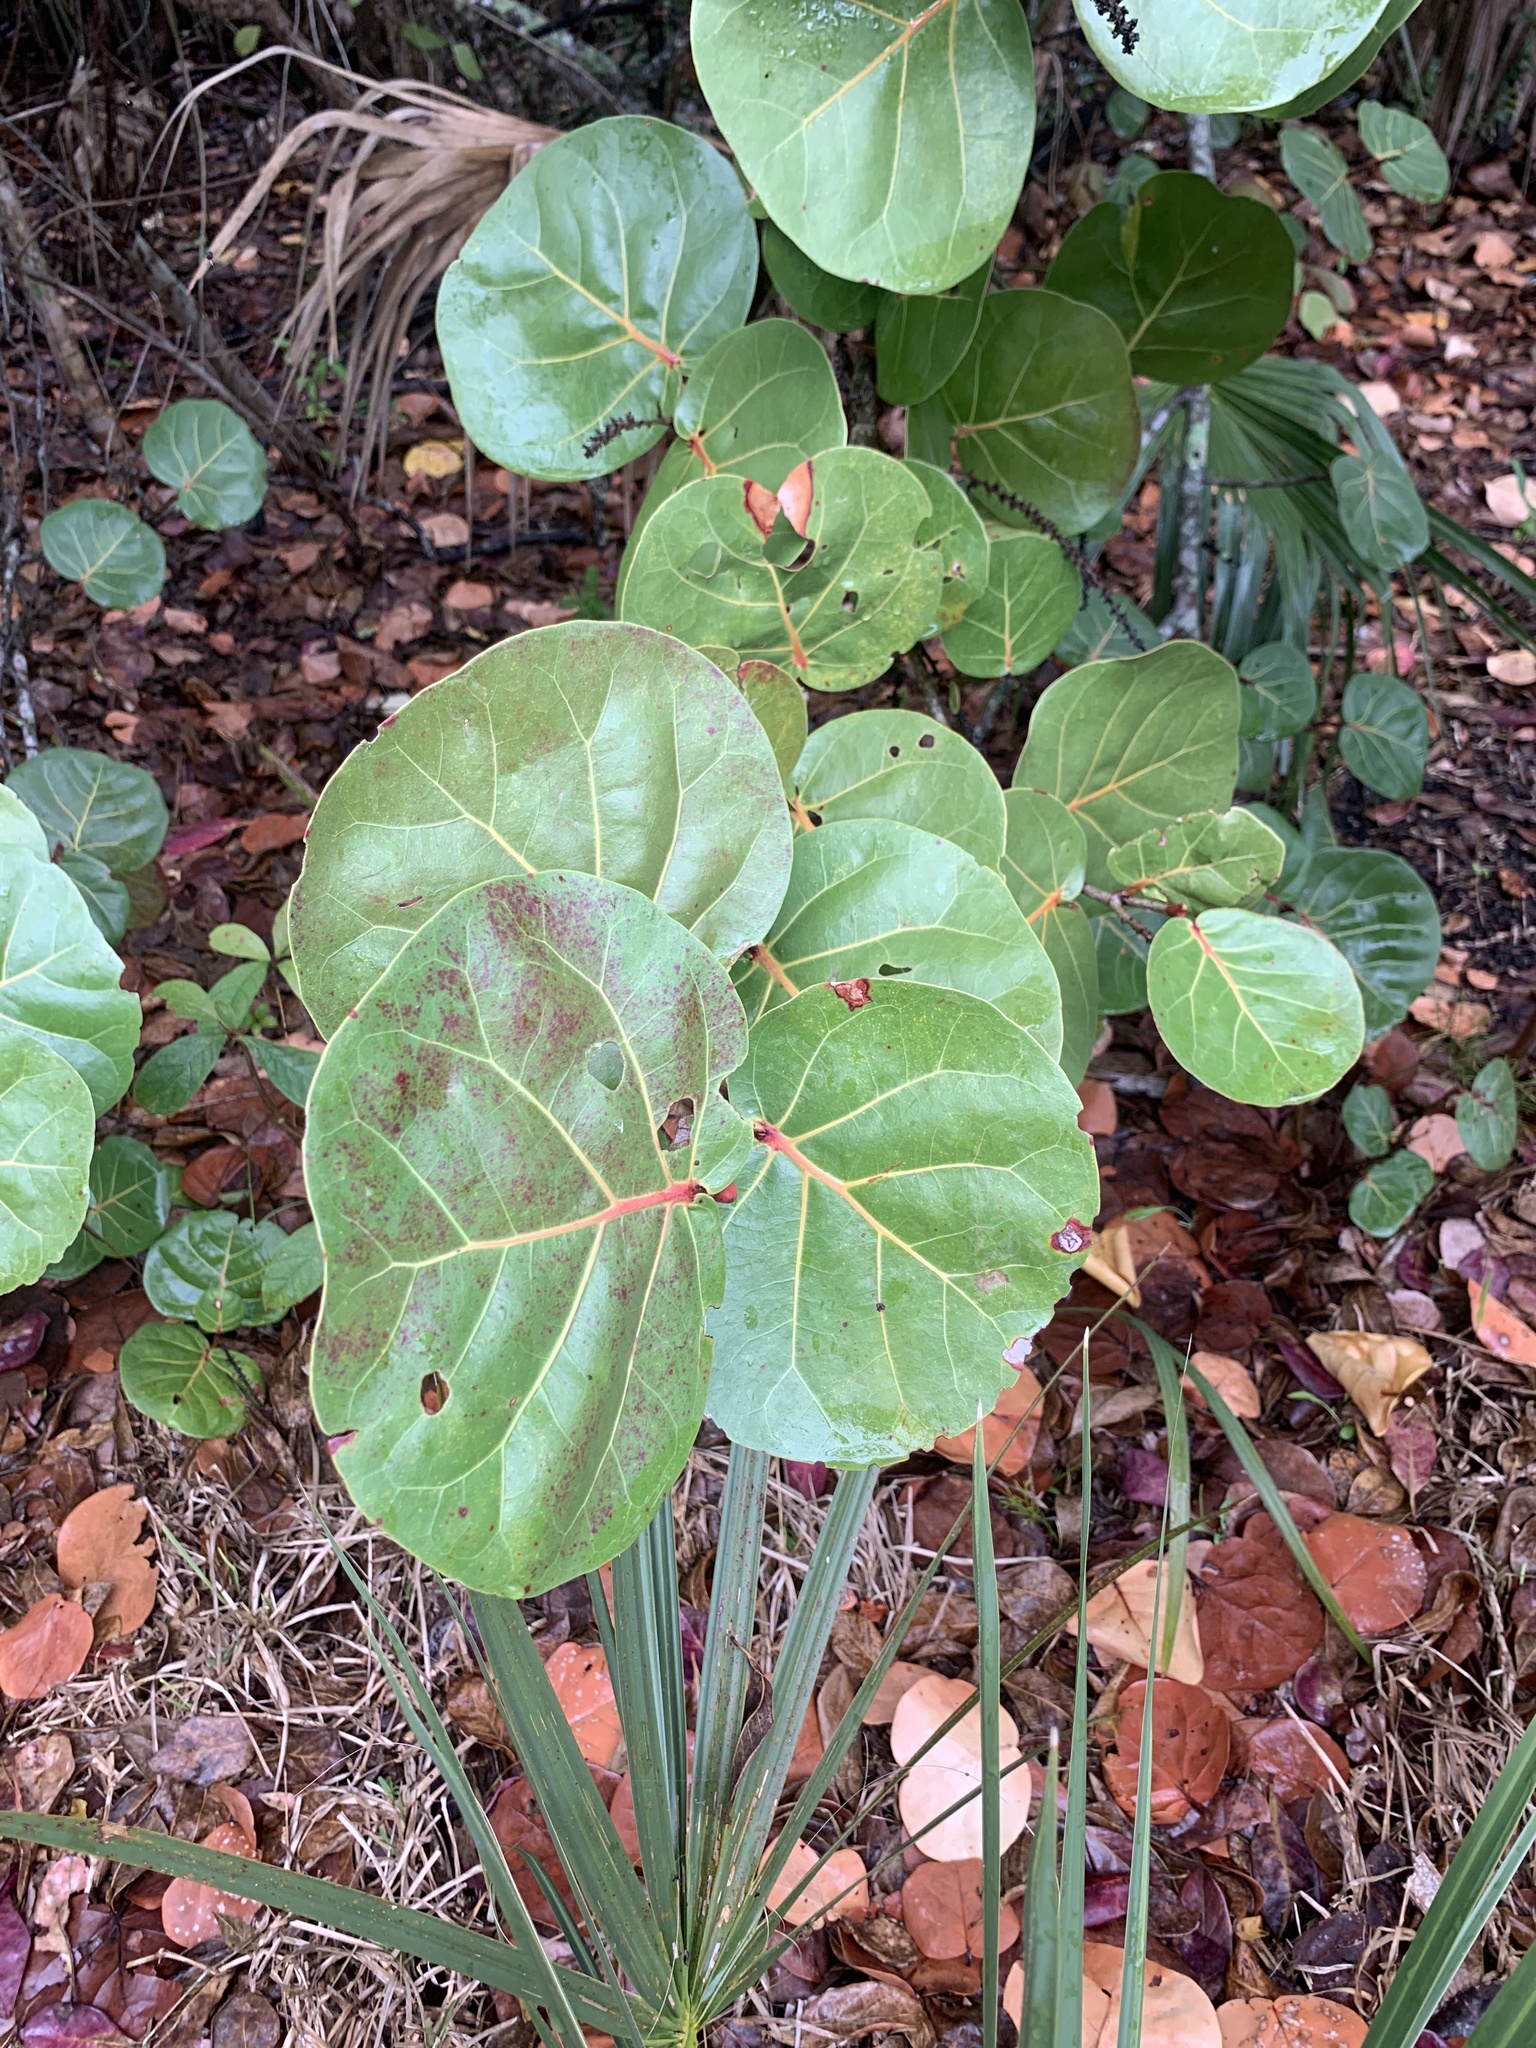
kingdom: Plantae
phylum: Tracheophyta
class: Magnoliopsida
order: Caryophyllales
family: Polygonaceae
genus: Coccoloba
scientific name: Coccoloba uvifera
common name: Seagrape
